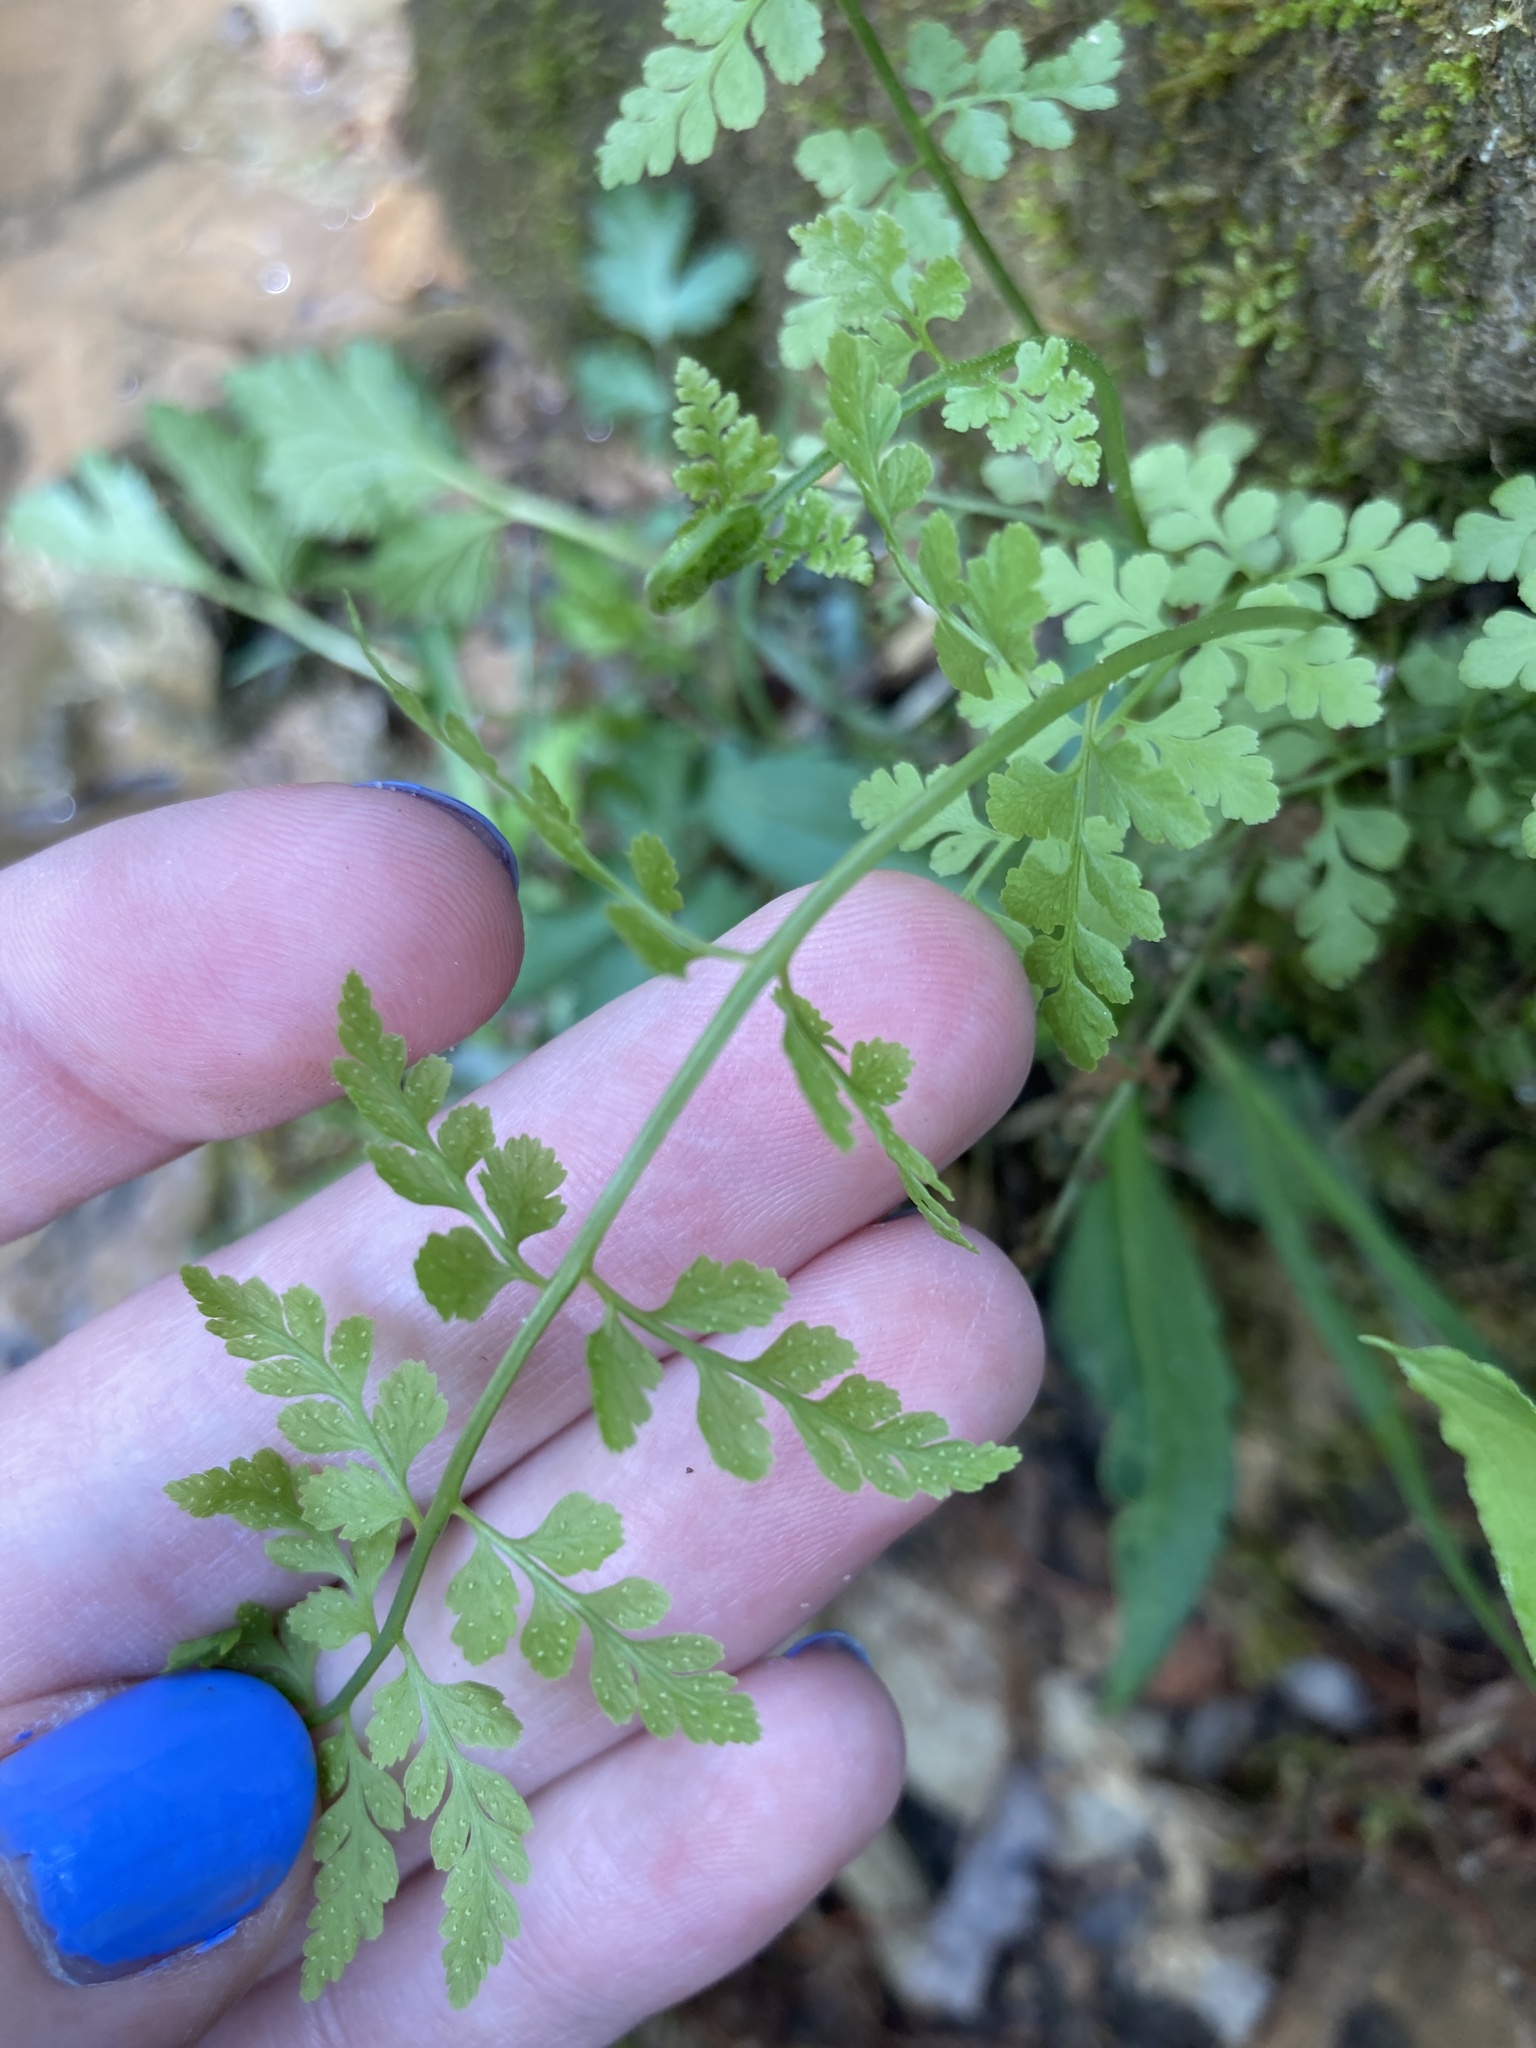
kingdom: Plantae
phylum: Tracheophyta
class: Polypodiopsida
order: Polypodiales
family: Cystopteridaceae
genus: Cystopteris
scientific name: Cystopteris protrusa
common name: Lowland brittle fern
